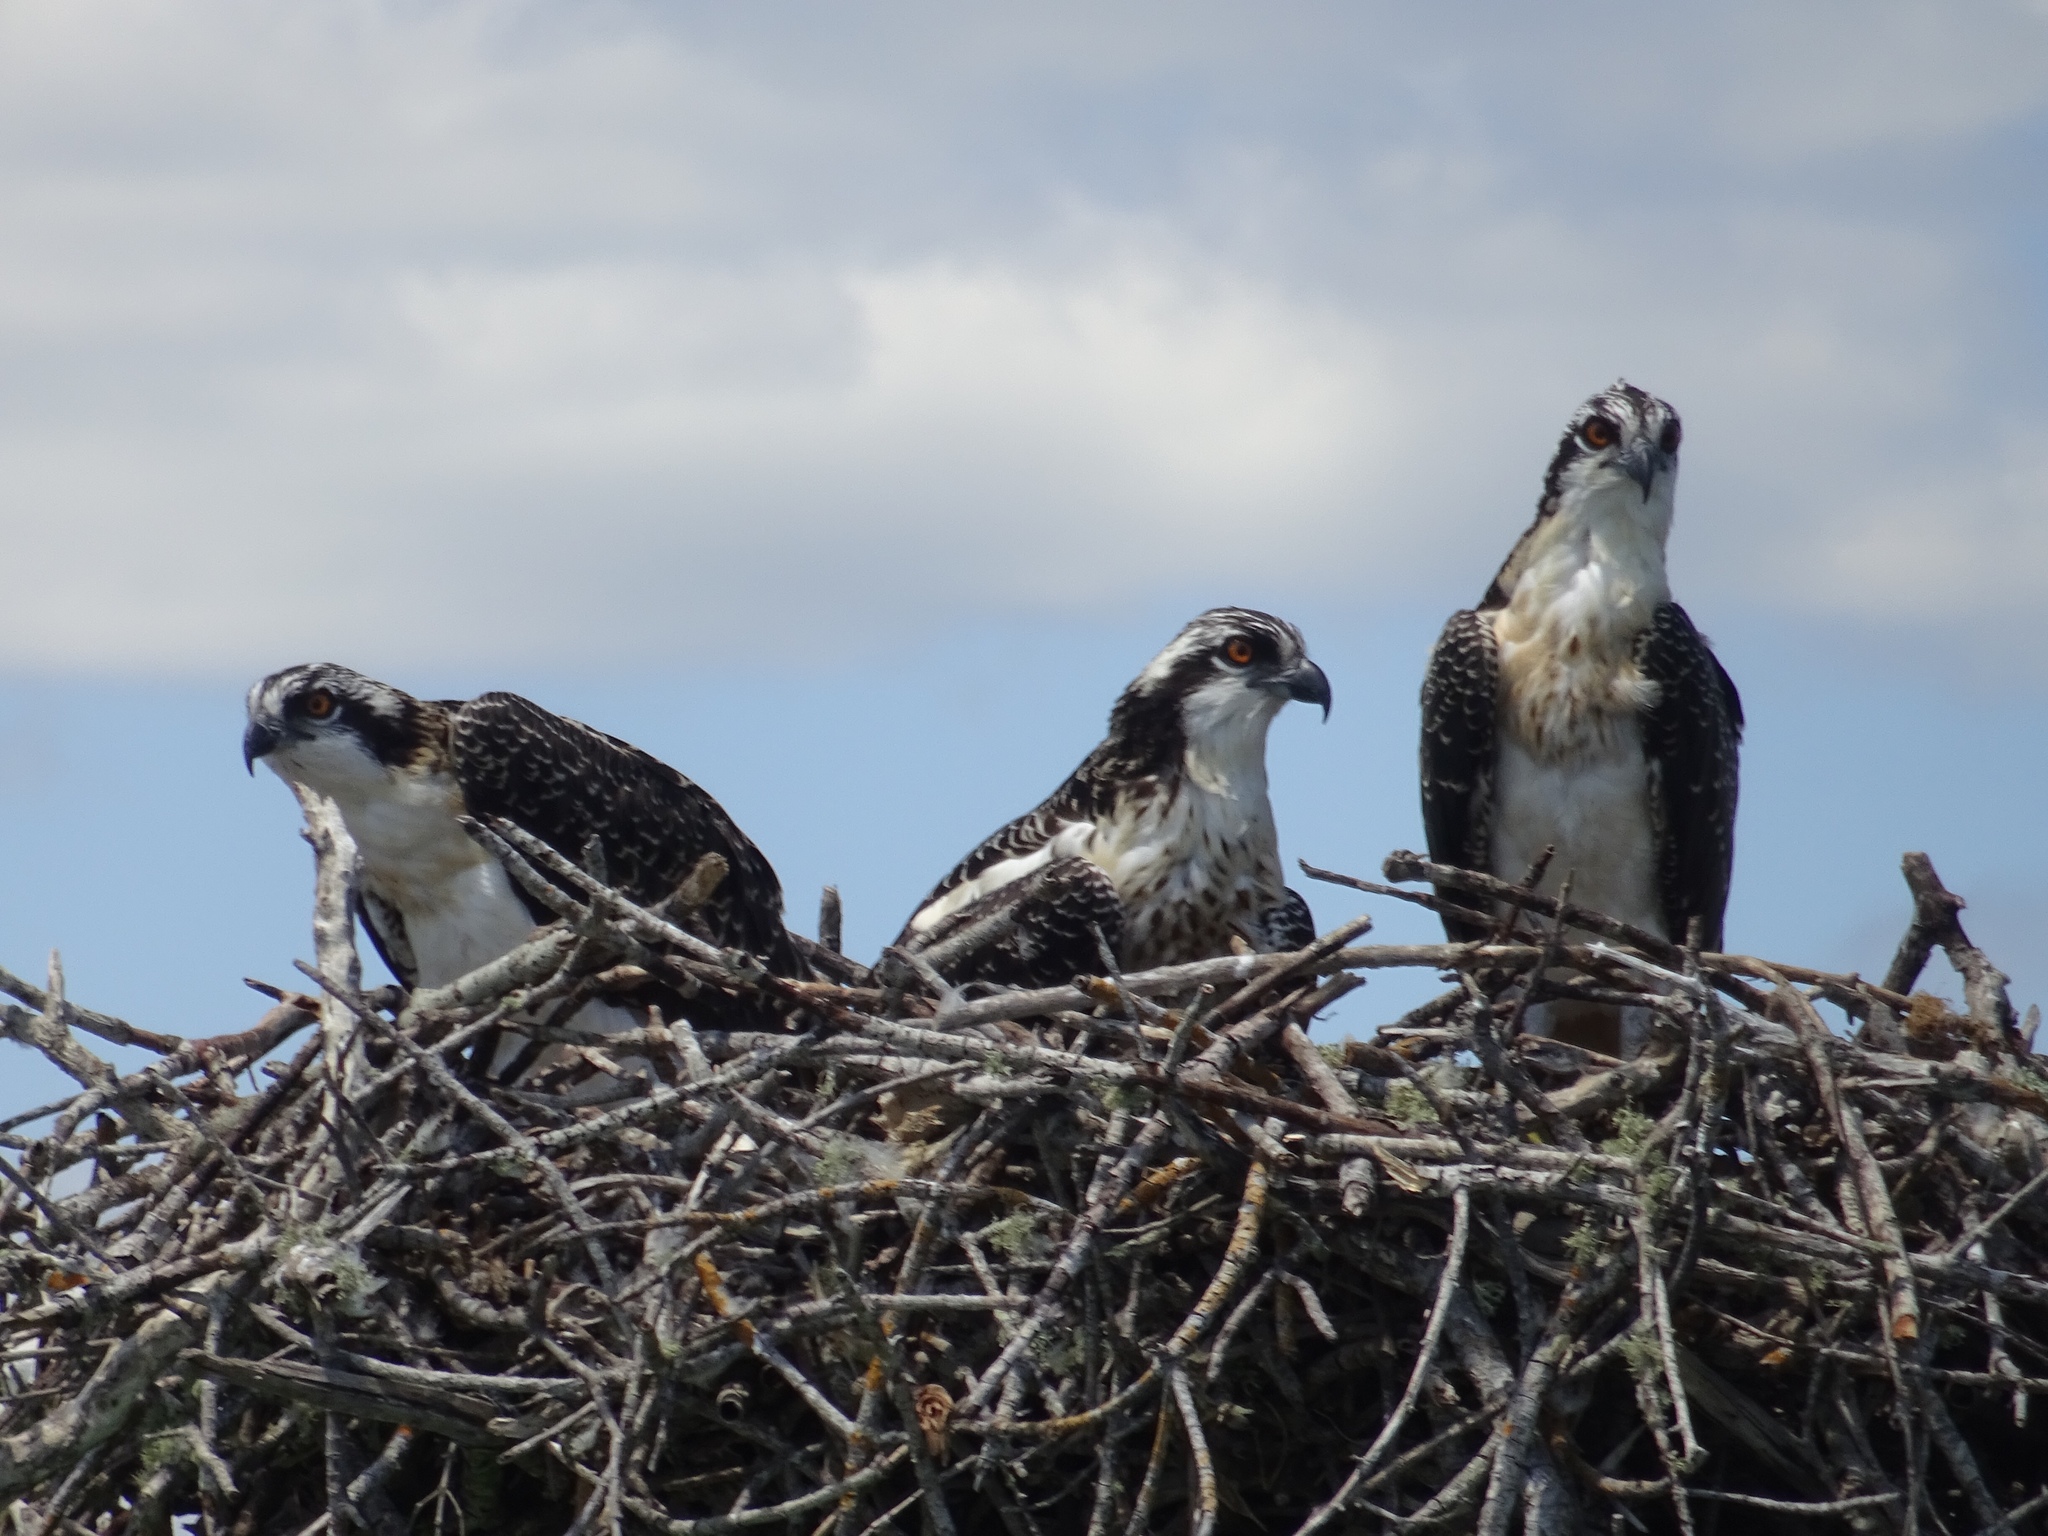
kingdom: Animalia
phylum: Chordata
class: Aves
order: Accipitriformes
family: Pandionidae
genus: Pandion
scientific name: Pandion haliaetus
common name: Osprey
